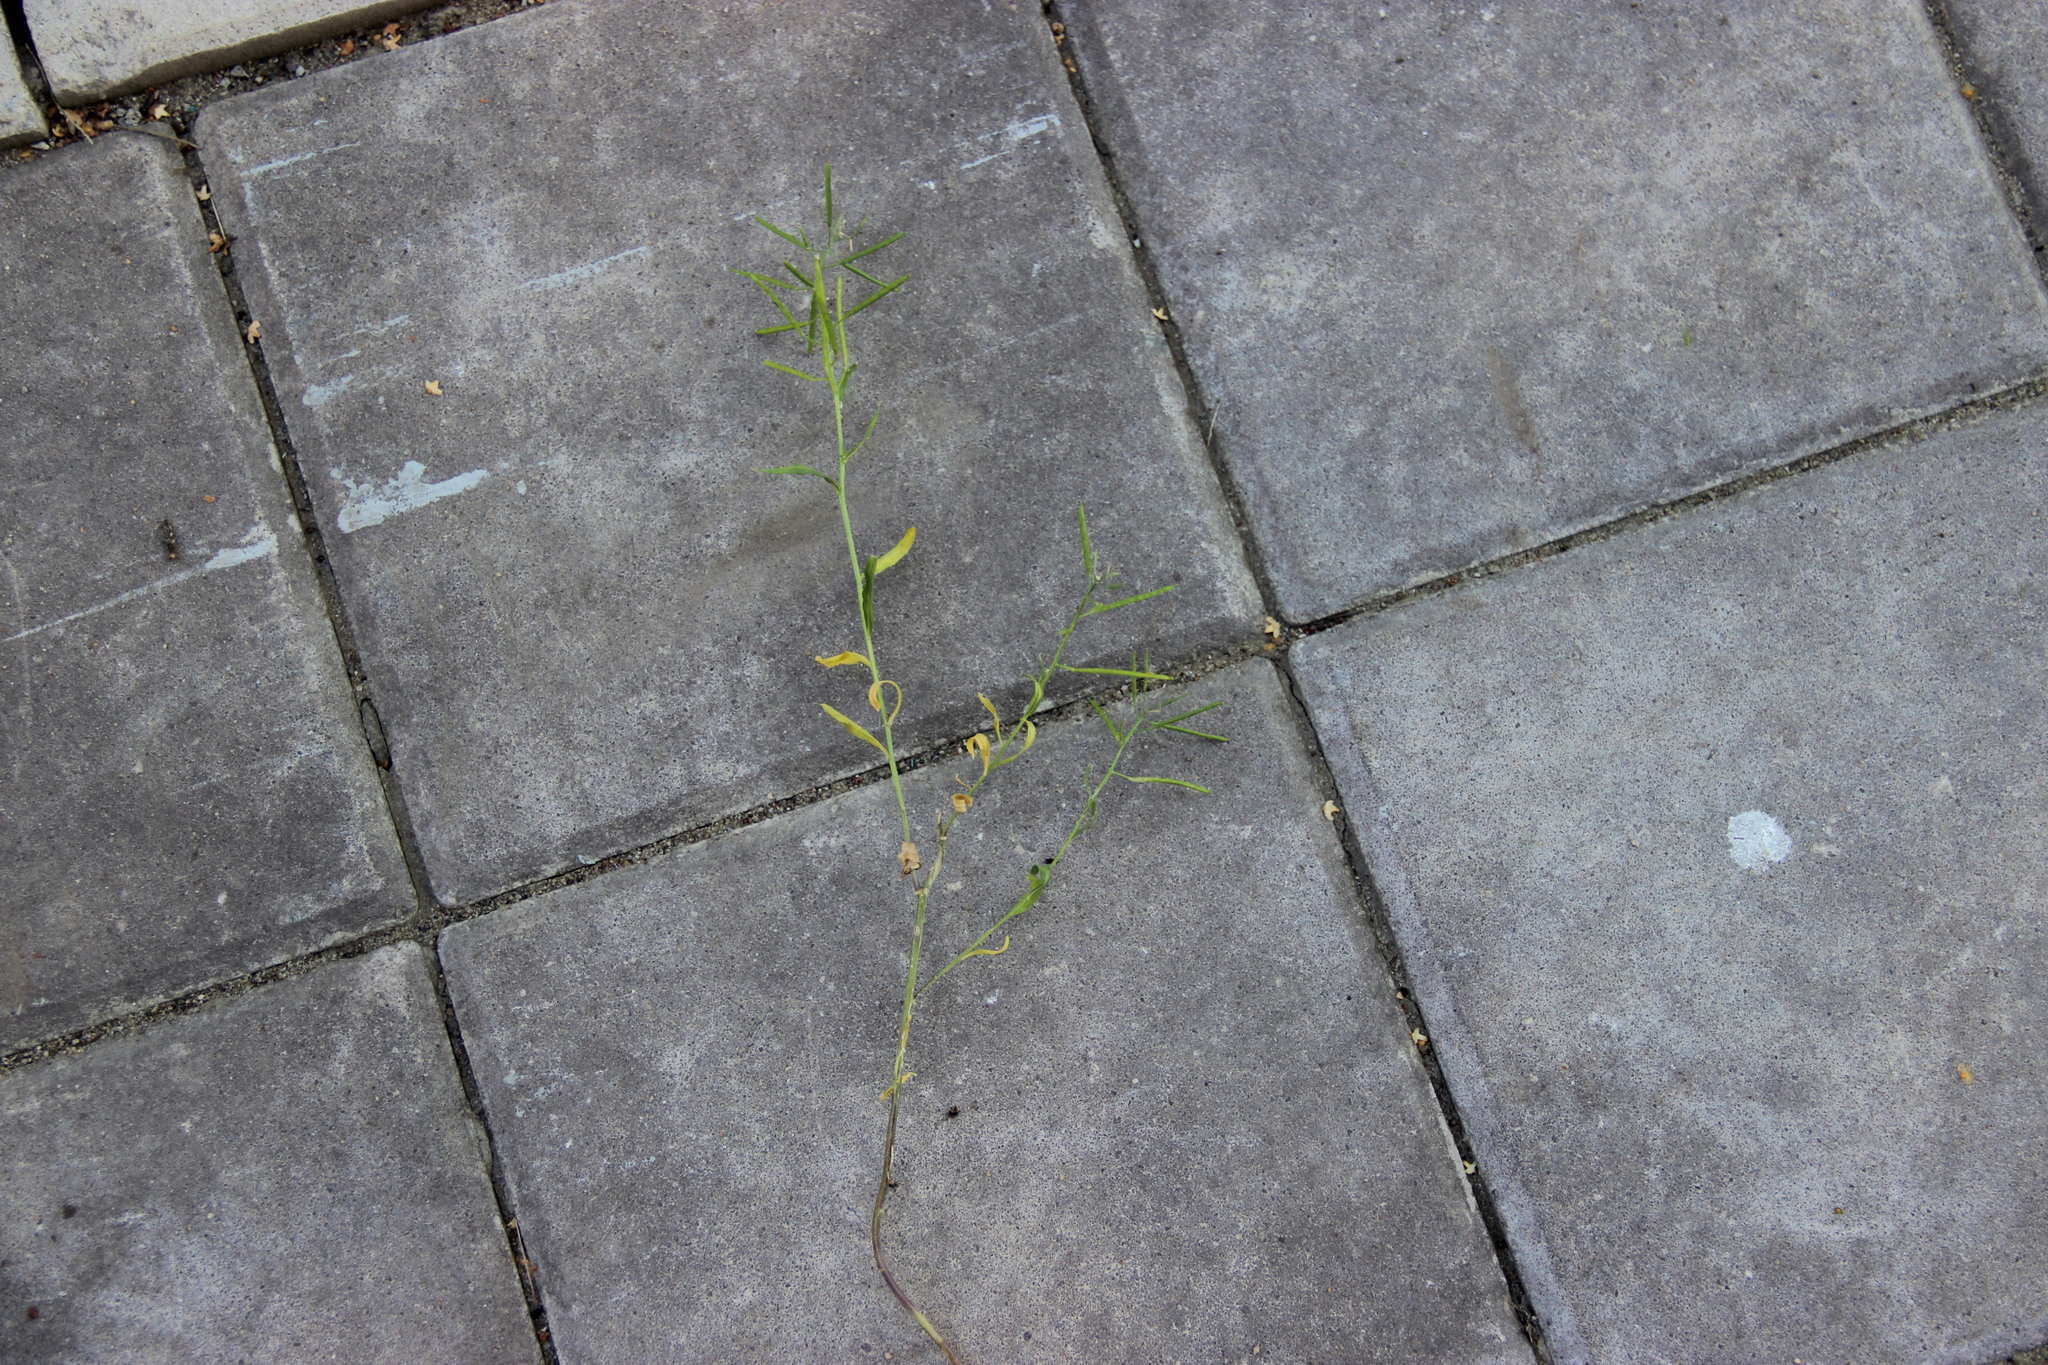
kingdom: Plantae
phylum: Tracheophyta
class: Magnoliopsida
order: Brassicales
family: Brassicaceae
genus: Erysimum
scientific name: Erysimum cheiranthoides
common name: Treacle mustard
